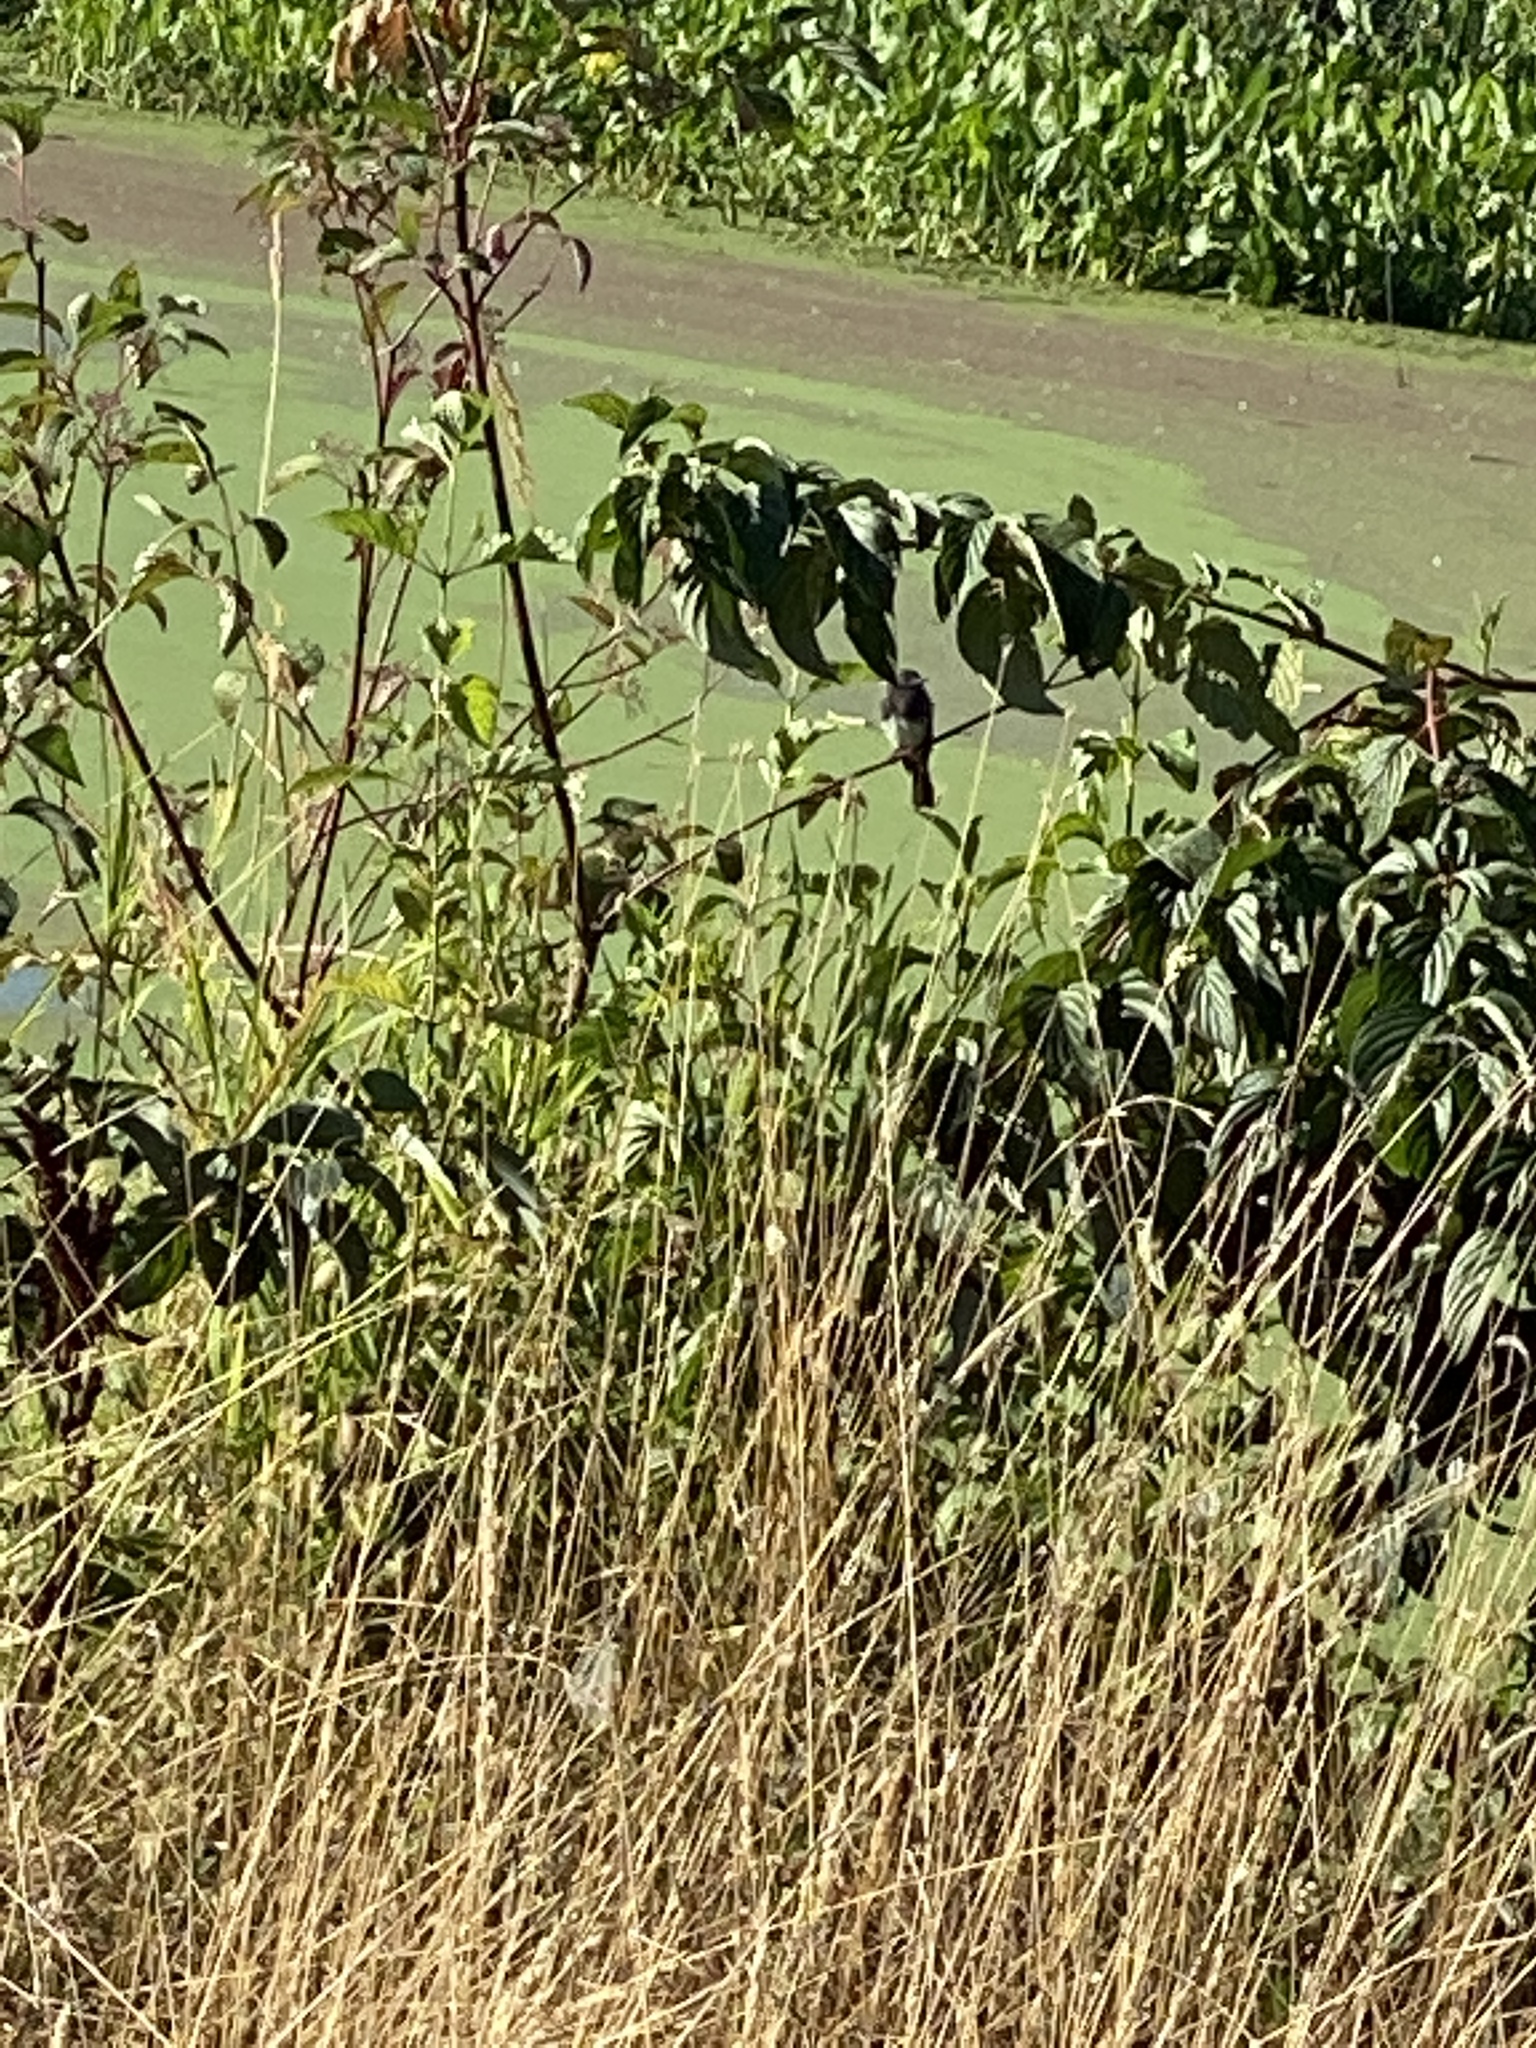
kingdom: Animalia
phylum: Chordata
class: Aves
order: Passeriformes
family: Tyrannidae
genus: Sayornis
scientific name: Sayornis nigricans
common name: Black phoebe
